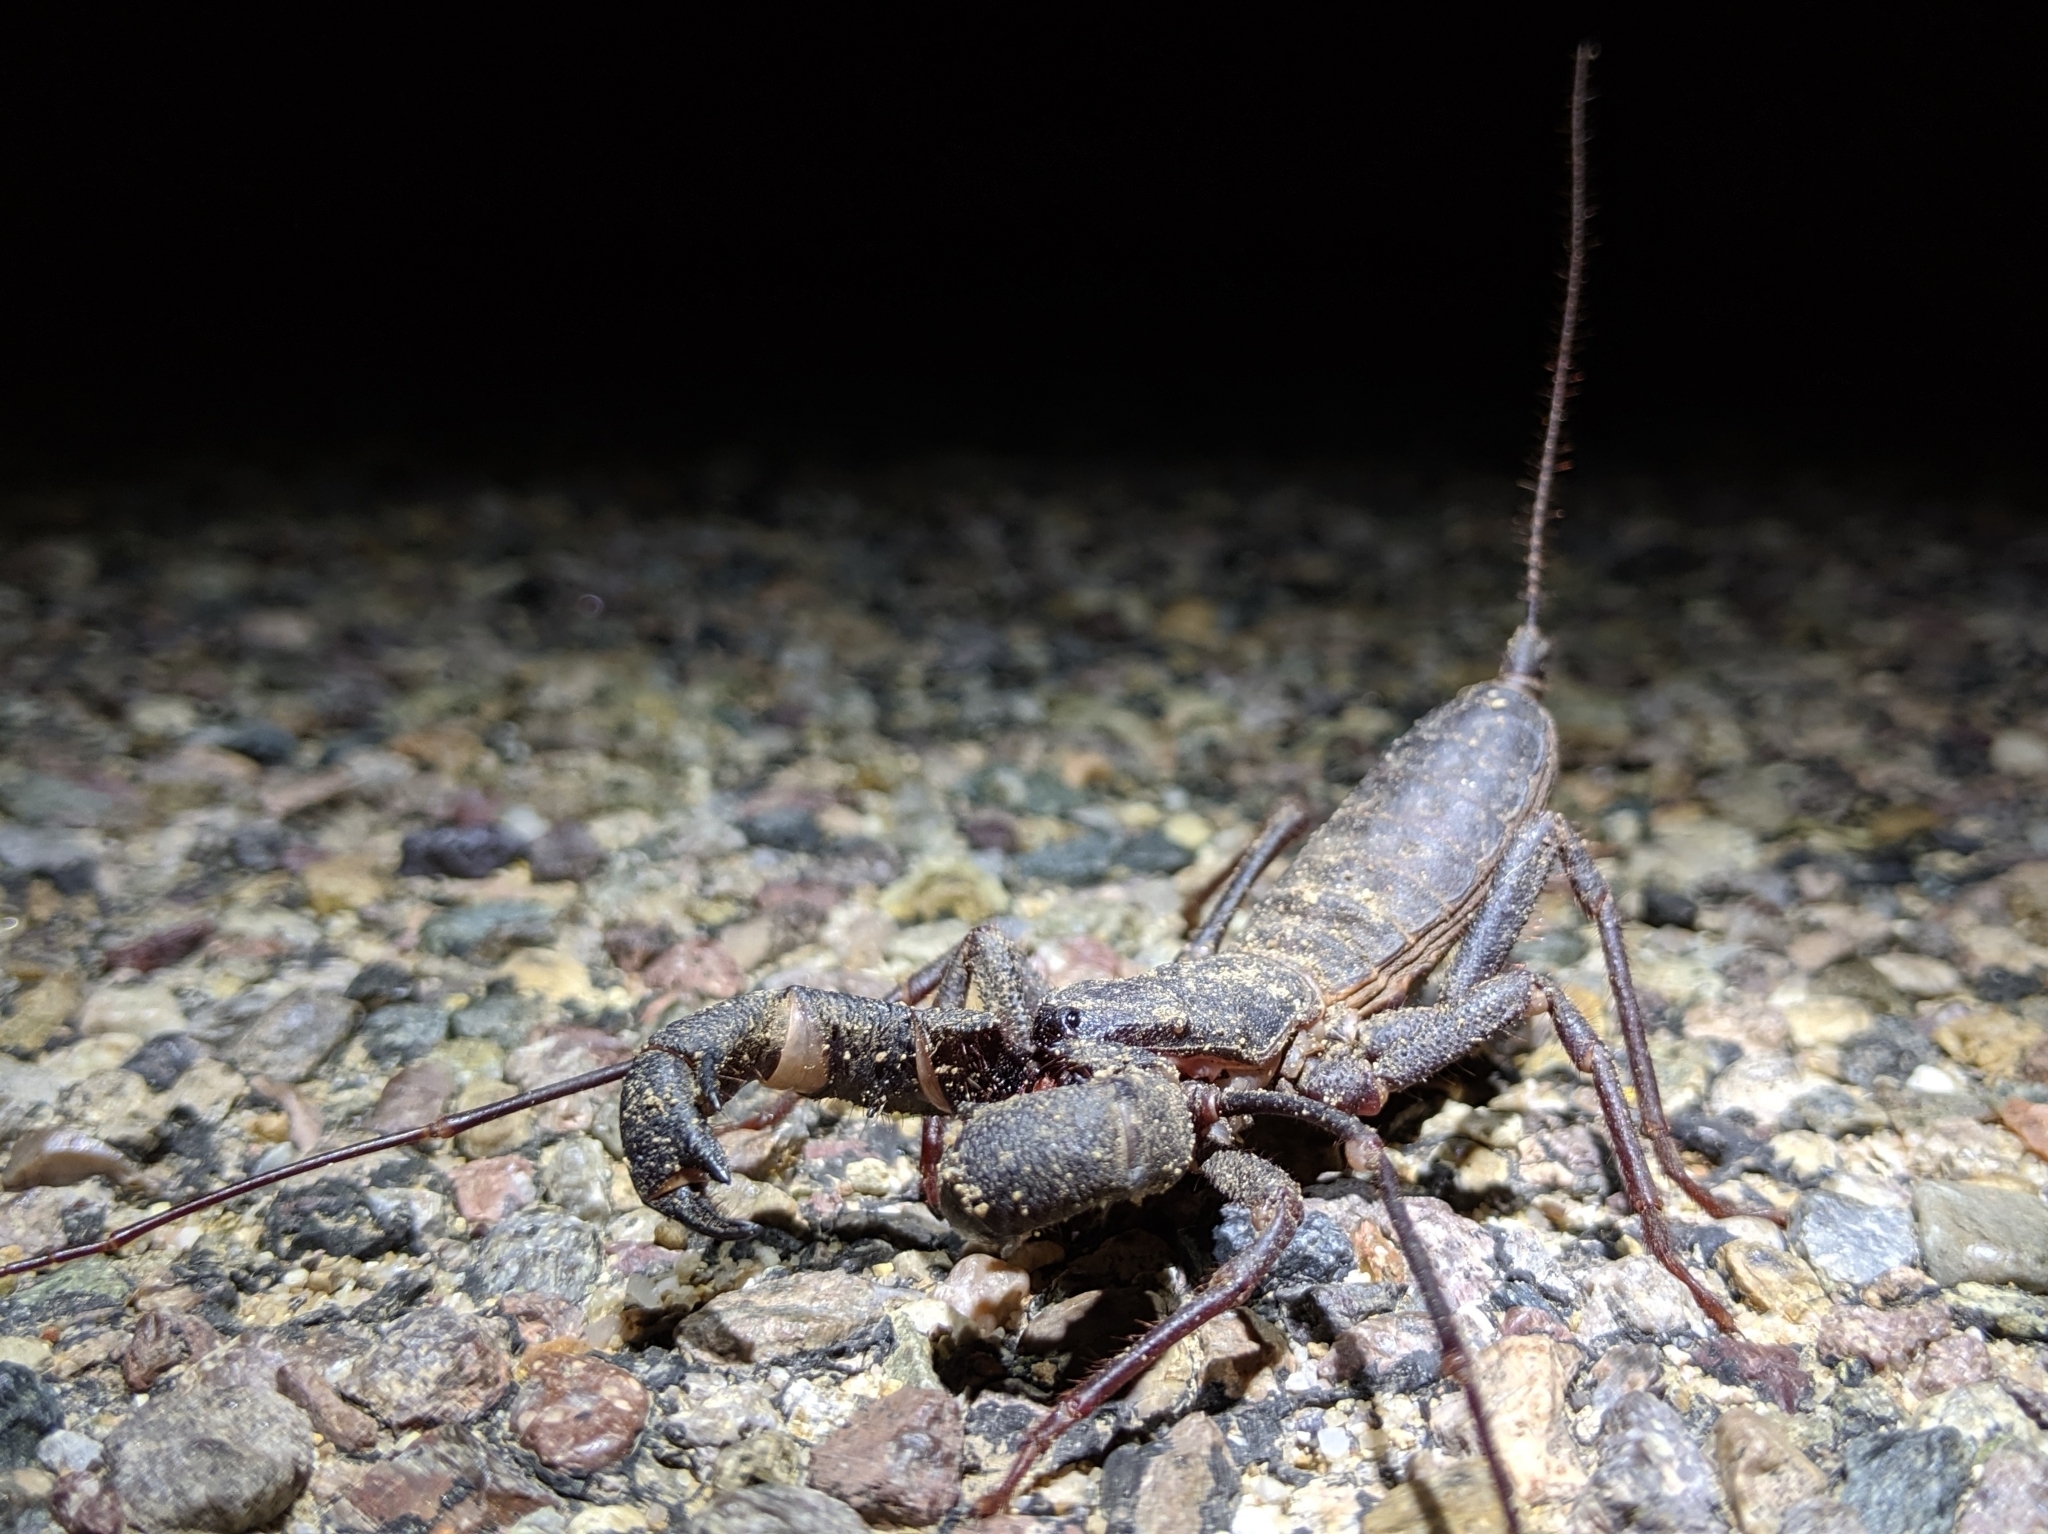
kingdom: Animalia
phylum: Arthropoda
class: Arachnida
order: Uropygi
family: Thelyphonidae
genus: Mastigoproctus
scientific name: Mastigoproctus tohono
